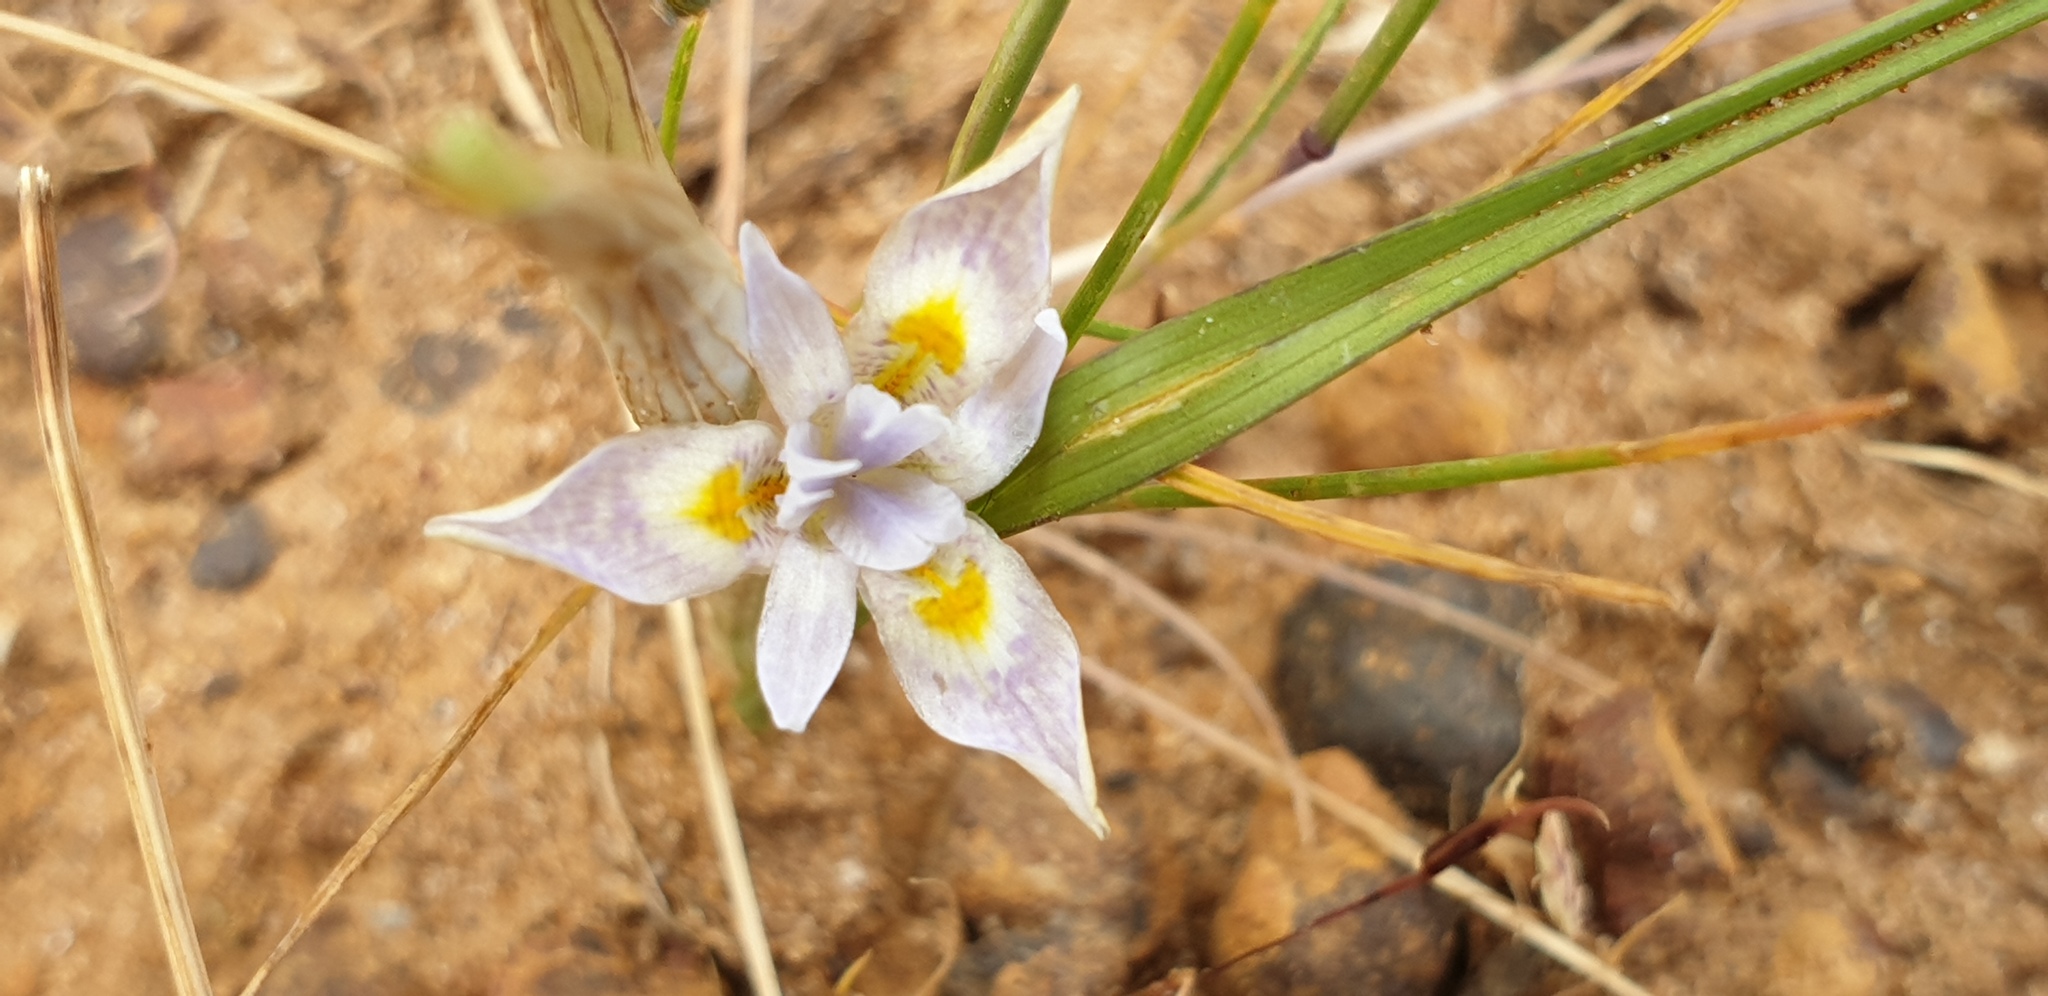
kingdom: Plantae
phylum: Tracheophyta
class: Liliopsida
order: Asparagales
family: Iridaceae
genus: Moraea
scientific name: Moraea setifolia
